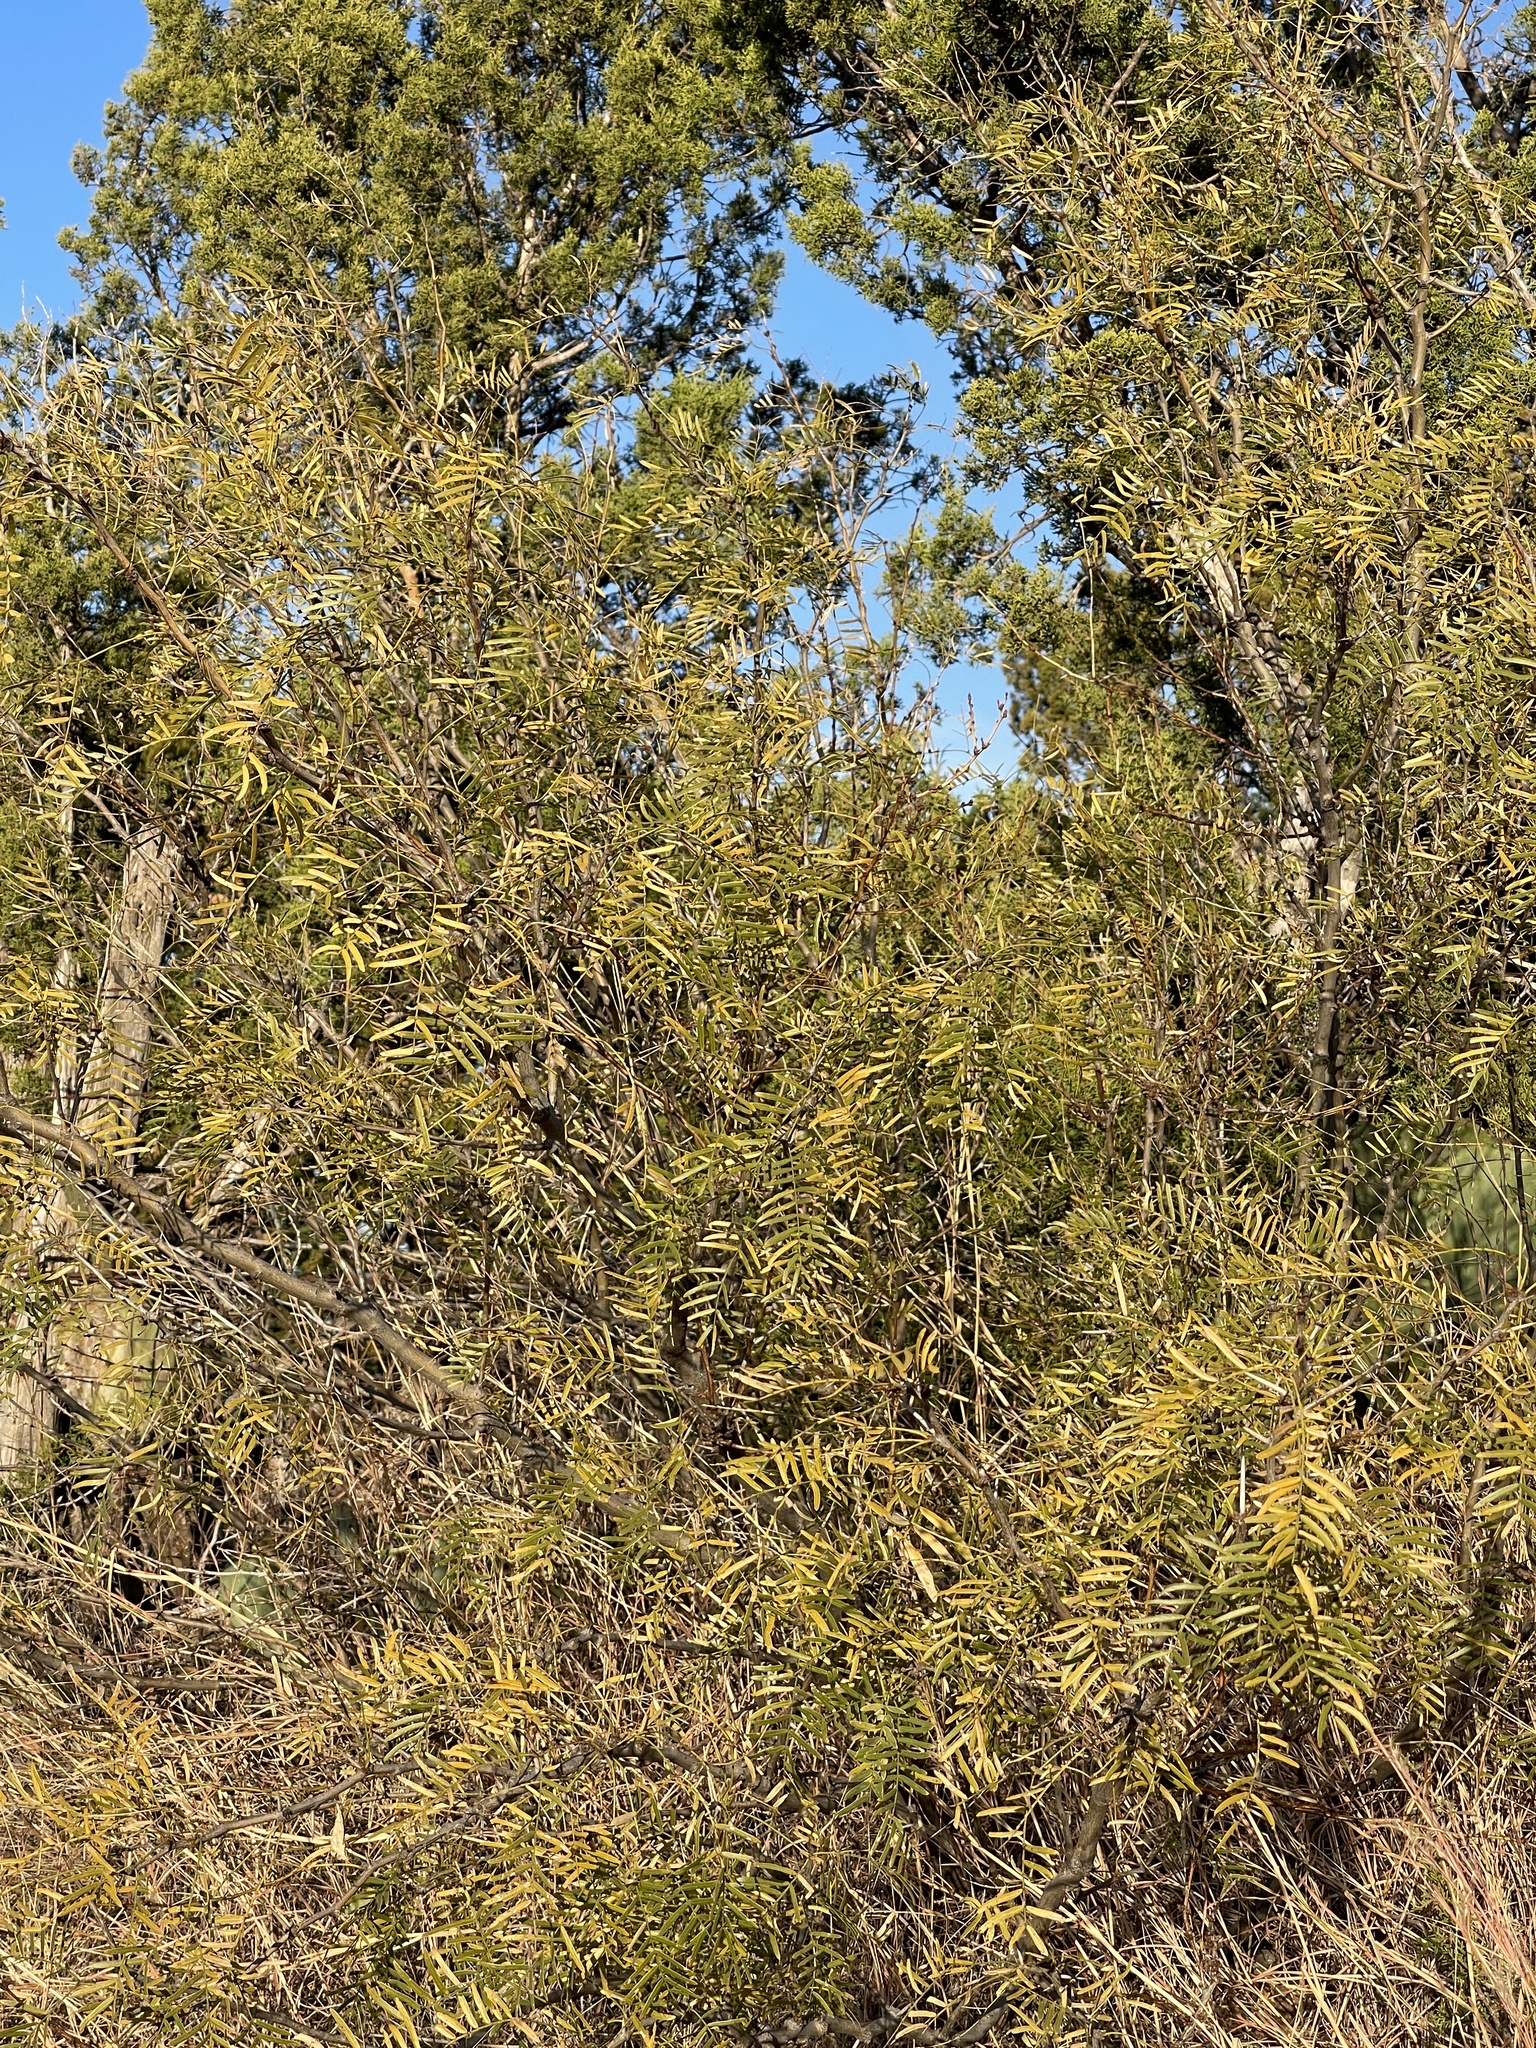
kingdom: Plantae
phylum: Tracheophyta
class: Magnoliopsida
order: Fabales
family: Fabaceae
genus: Prosopis
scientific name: Prosopis glandulosa
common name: Honey mesquite
